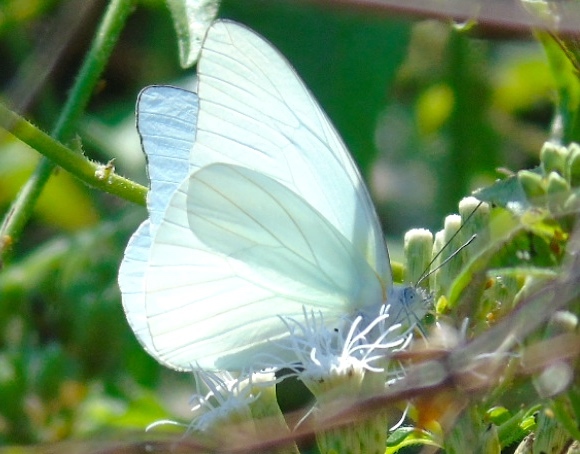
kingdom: Animalia
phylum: Arthropoda
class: Insecta
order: Lepidoptera
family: Pieridae
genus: Glutophrissa
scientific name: Glutophrissa drusilla
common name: Florida white
